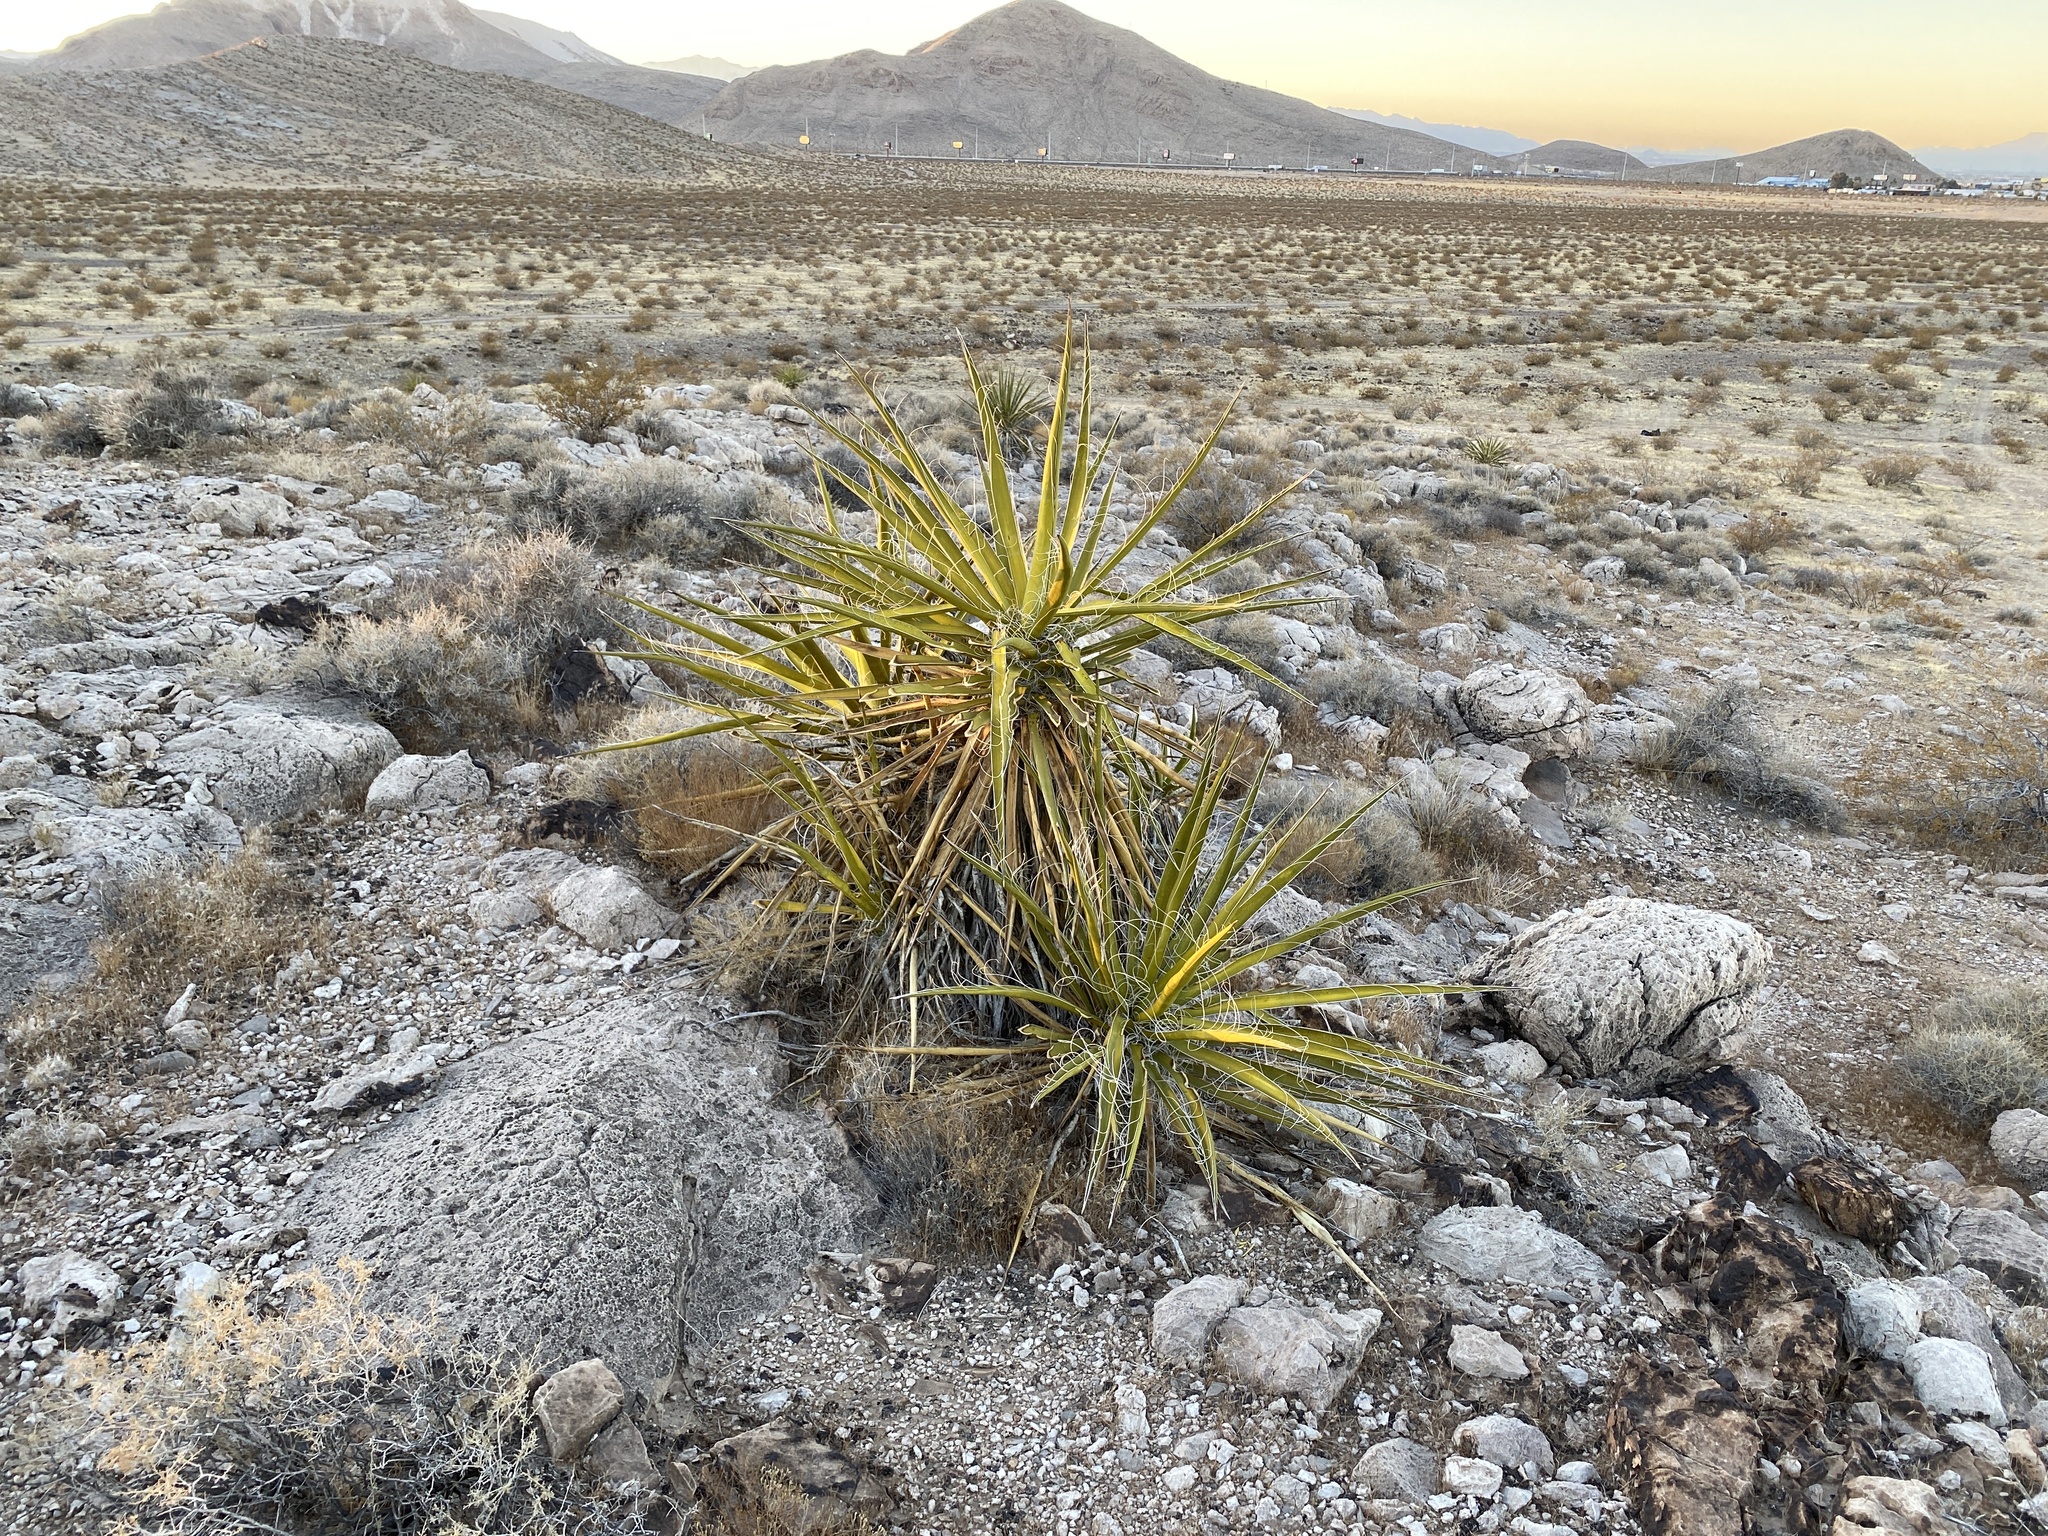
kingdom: Plantae
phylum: Tracheophyta
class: Liliopsida
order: Asparagales
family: Asparagaceae
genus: Yucca
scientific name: Yucca schidigera
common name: Mojave yucca
